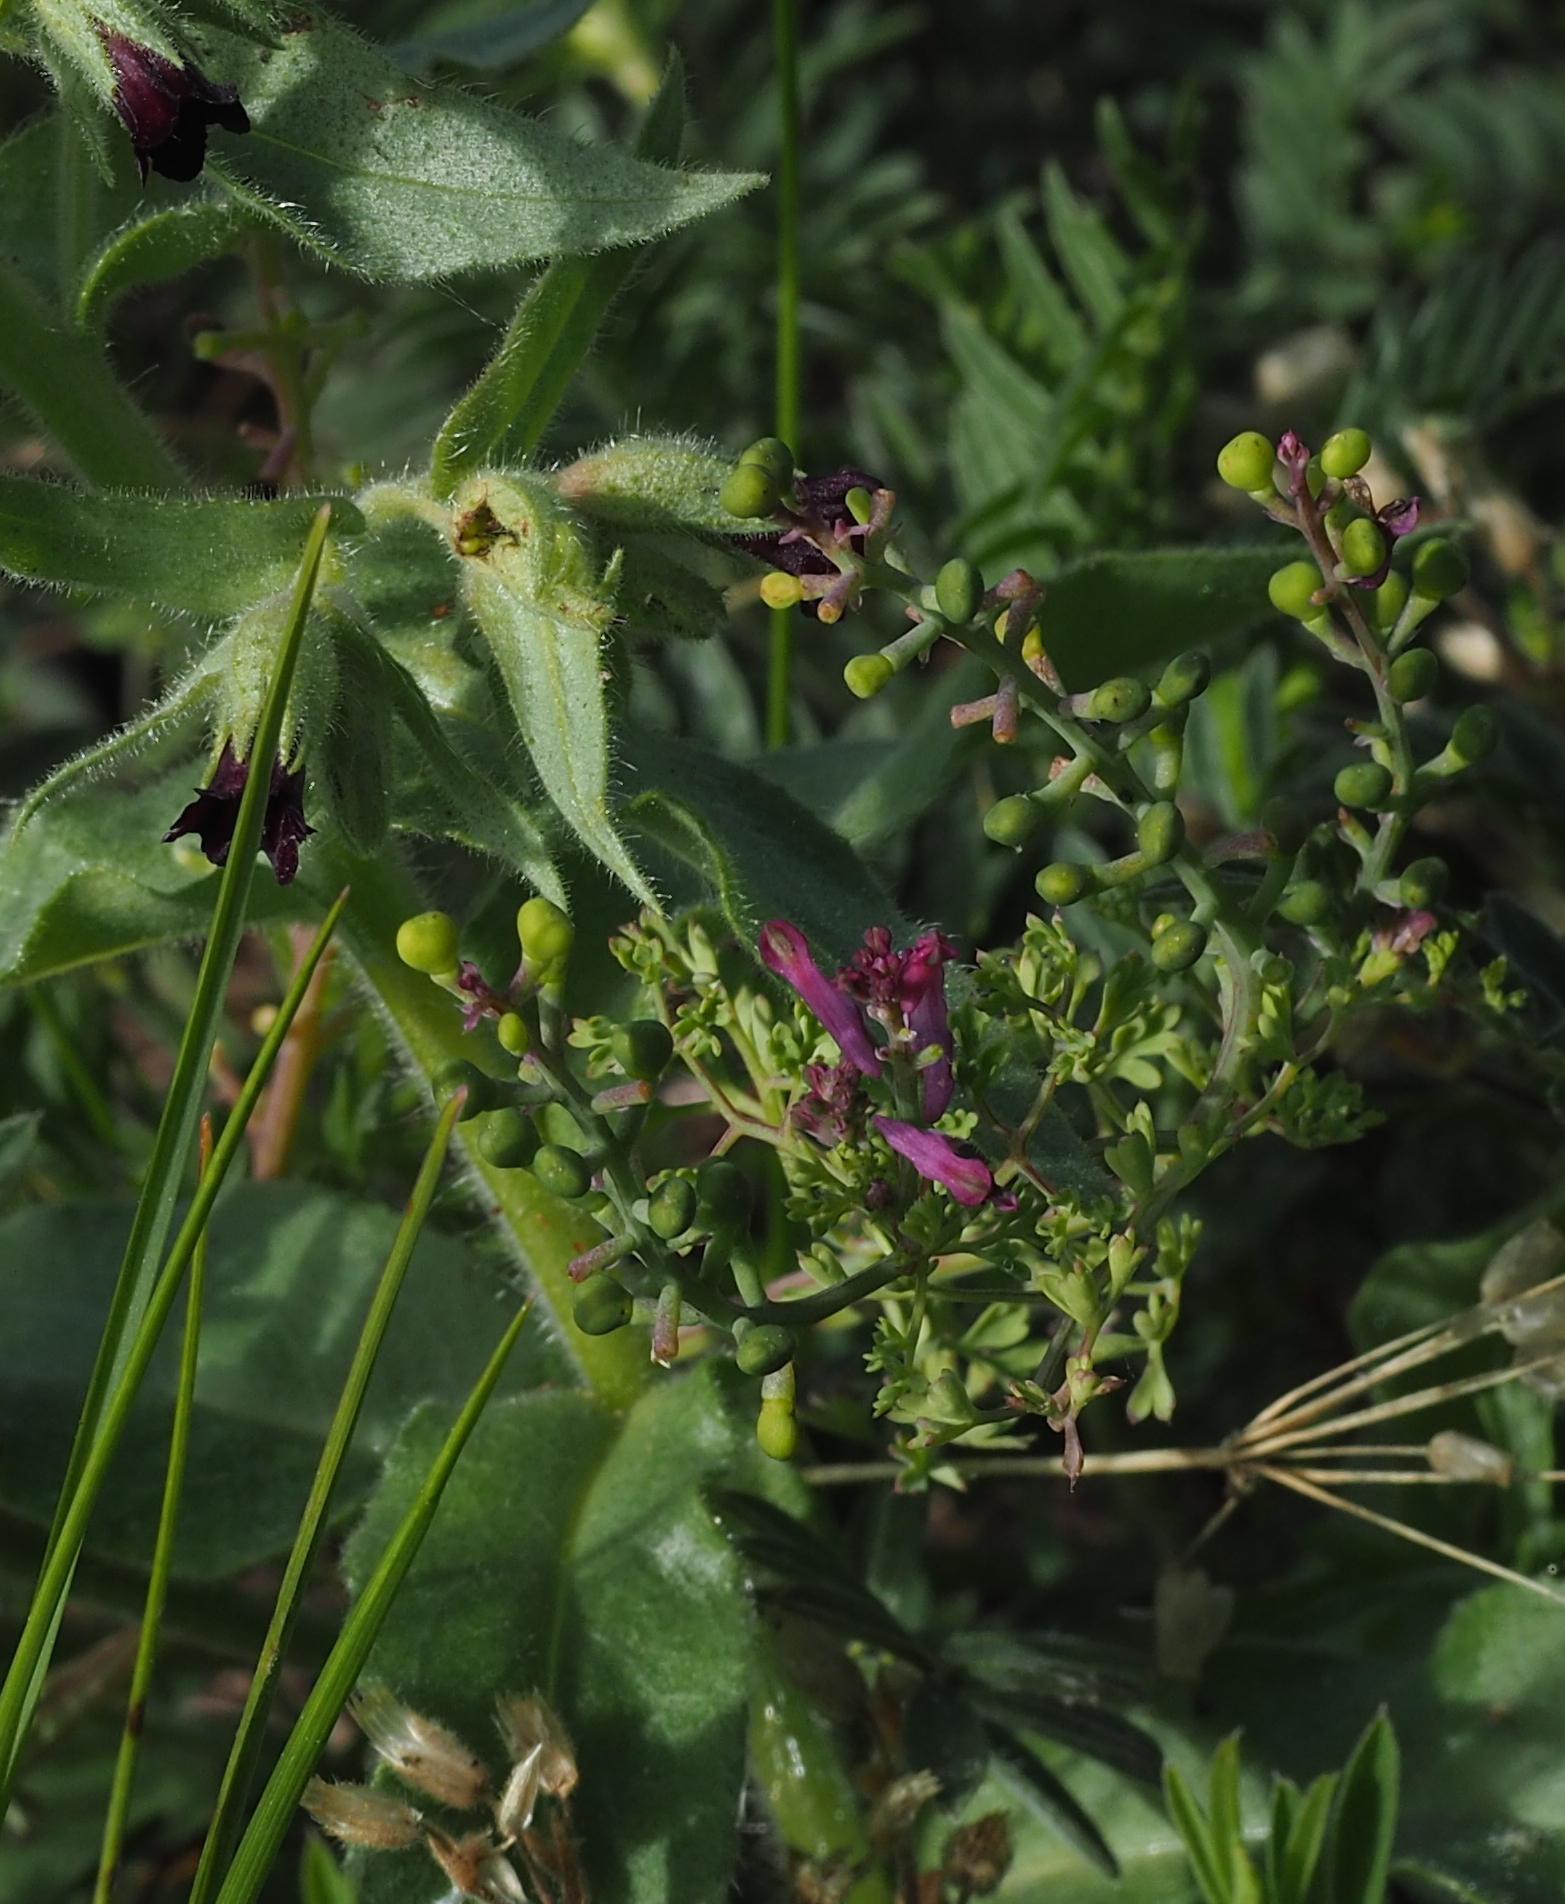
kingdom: Plantae
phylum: Tracheophyta
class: Magnoliopsida
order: Ranunculales
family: Papaveraceae
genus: Fumaria
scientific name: Fumaria officinalis
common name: Common fumitory
